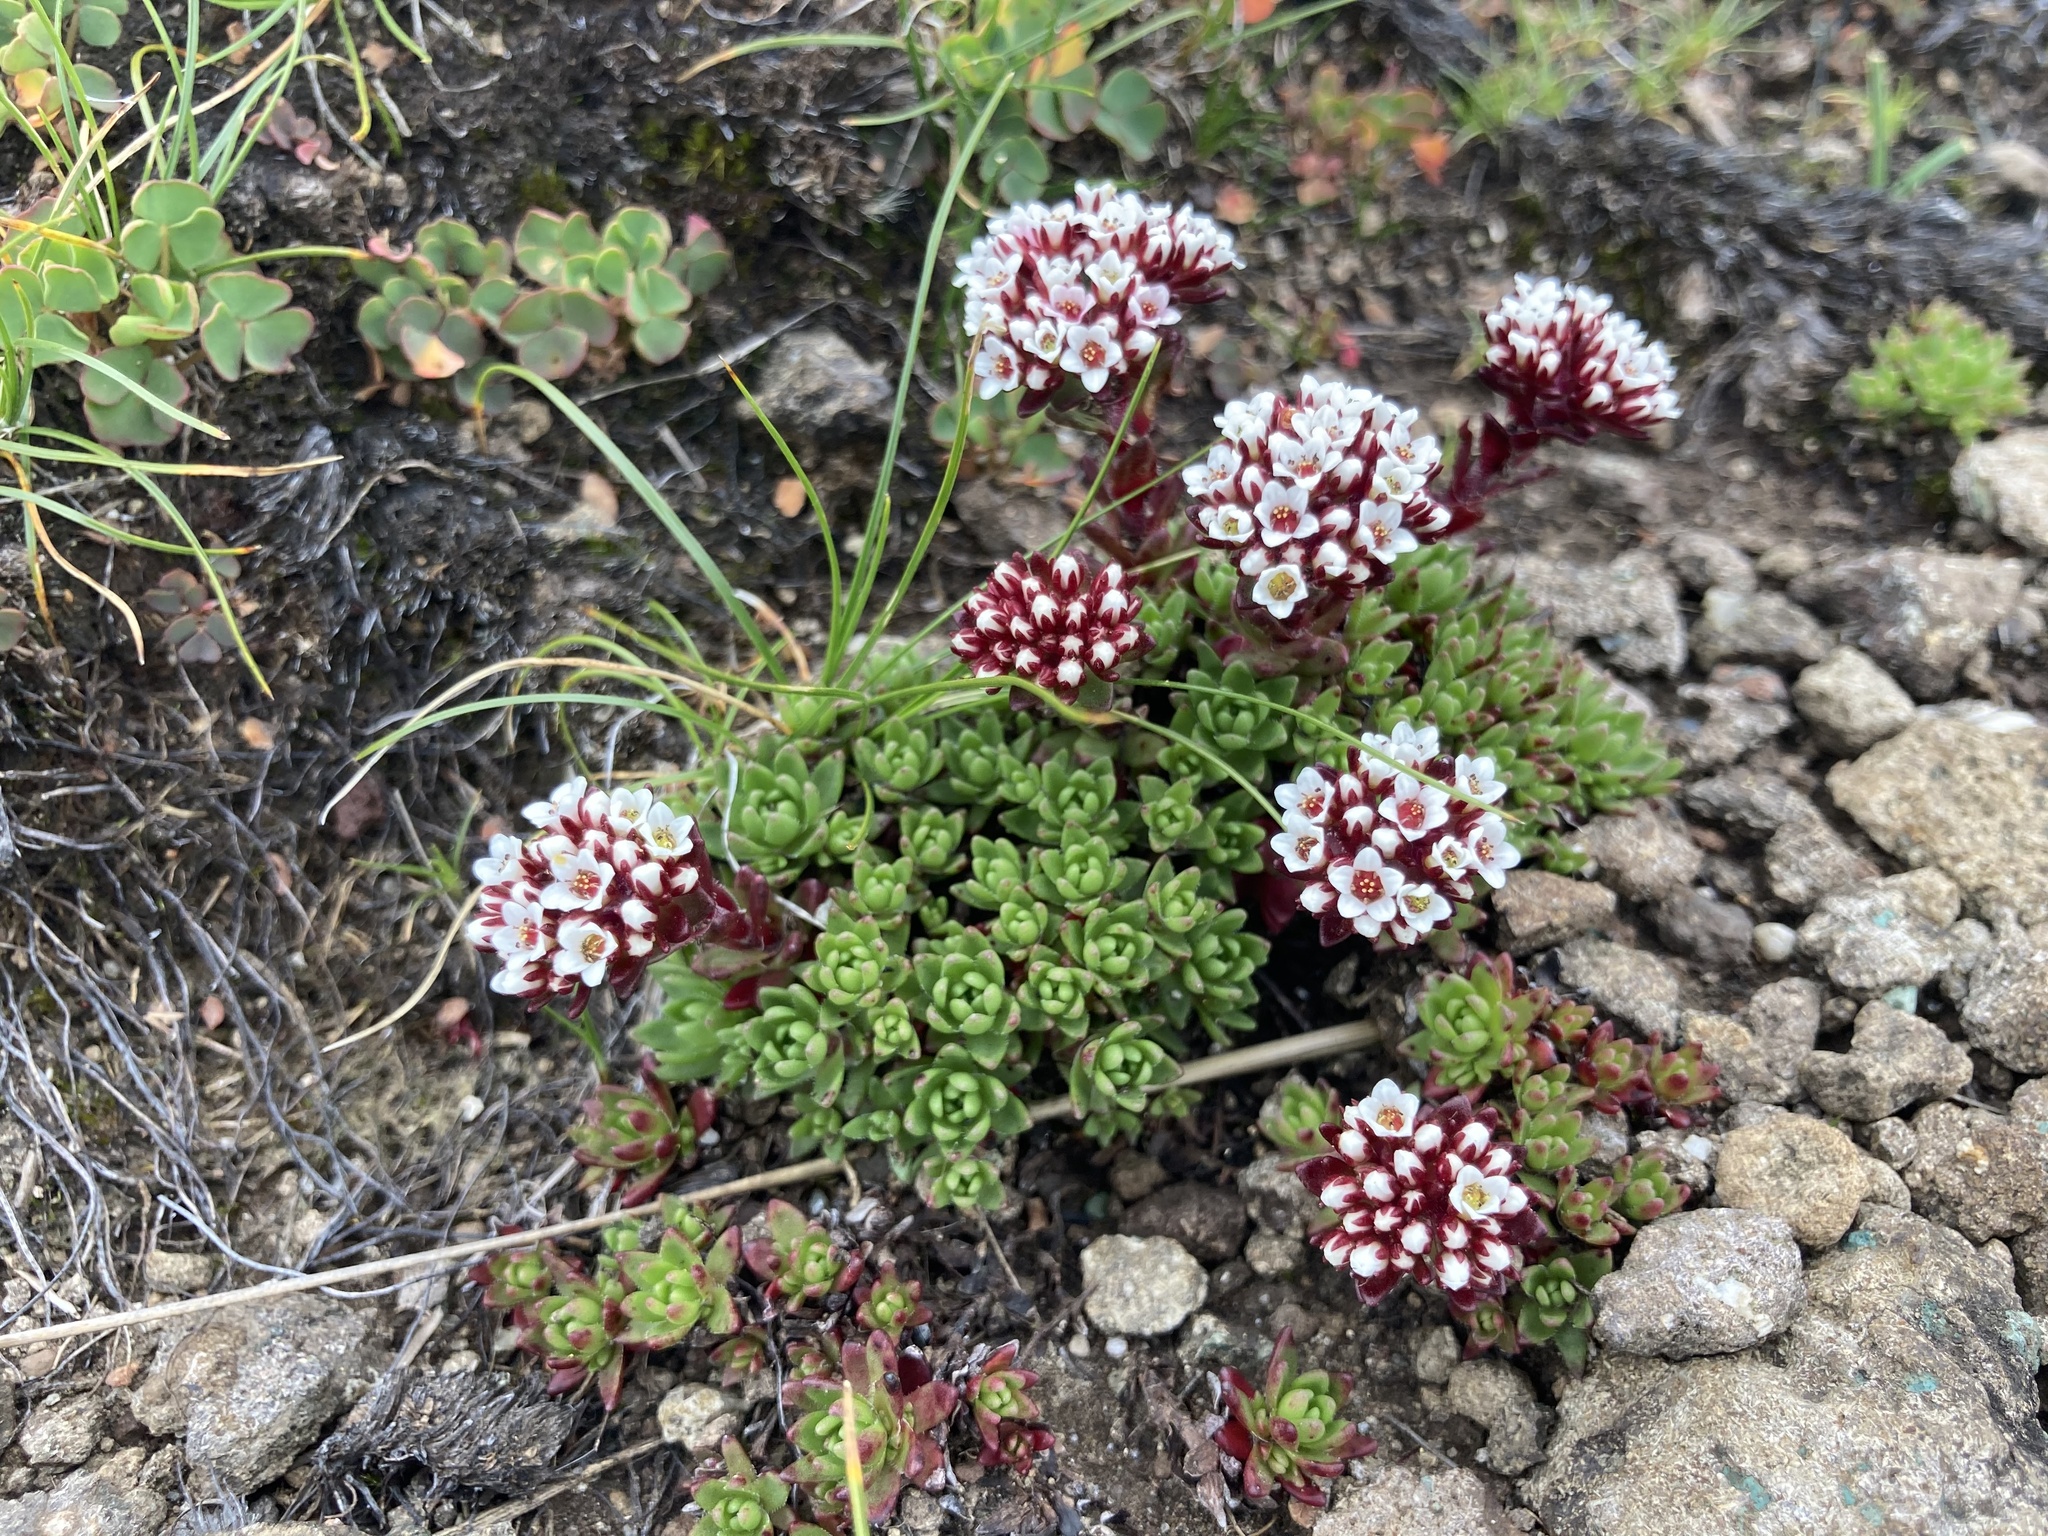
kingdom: Plantae
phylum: Tracheophyta
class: Magnoliopsida
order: Saxifragales
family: Crassulaceae
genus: Crassula
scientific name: Crassula setulosa
